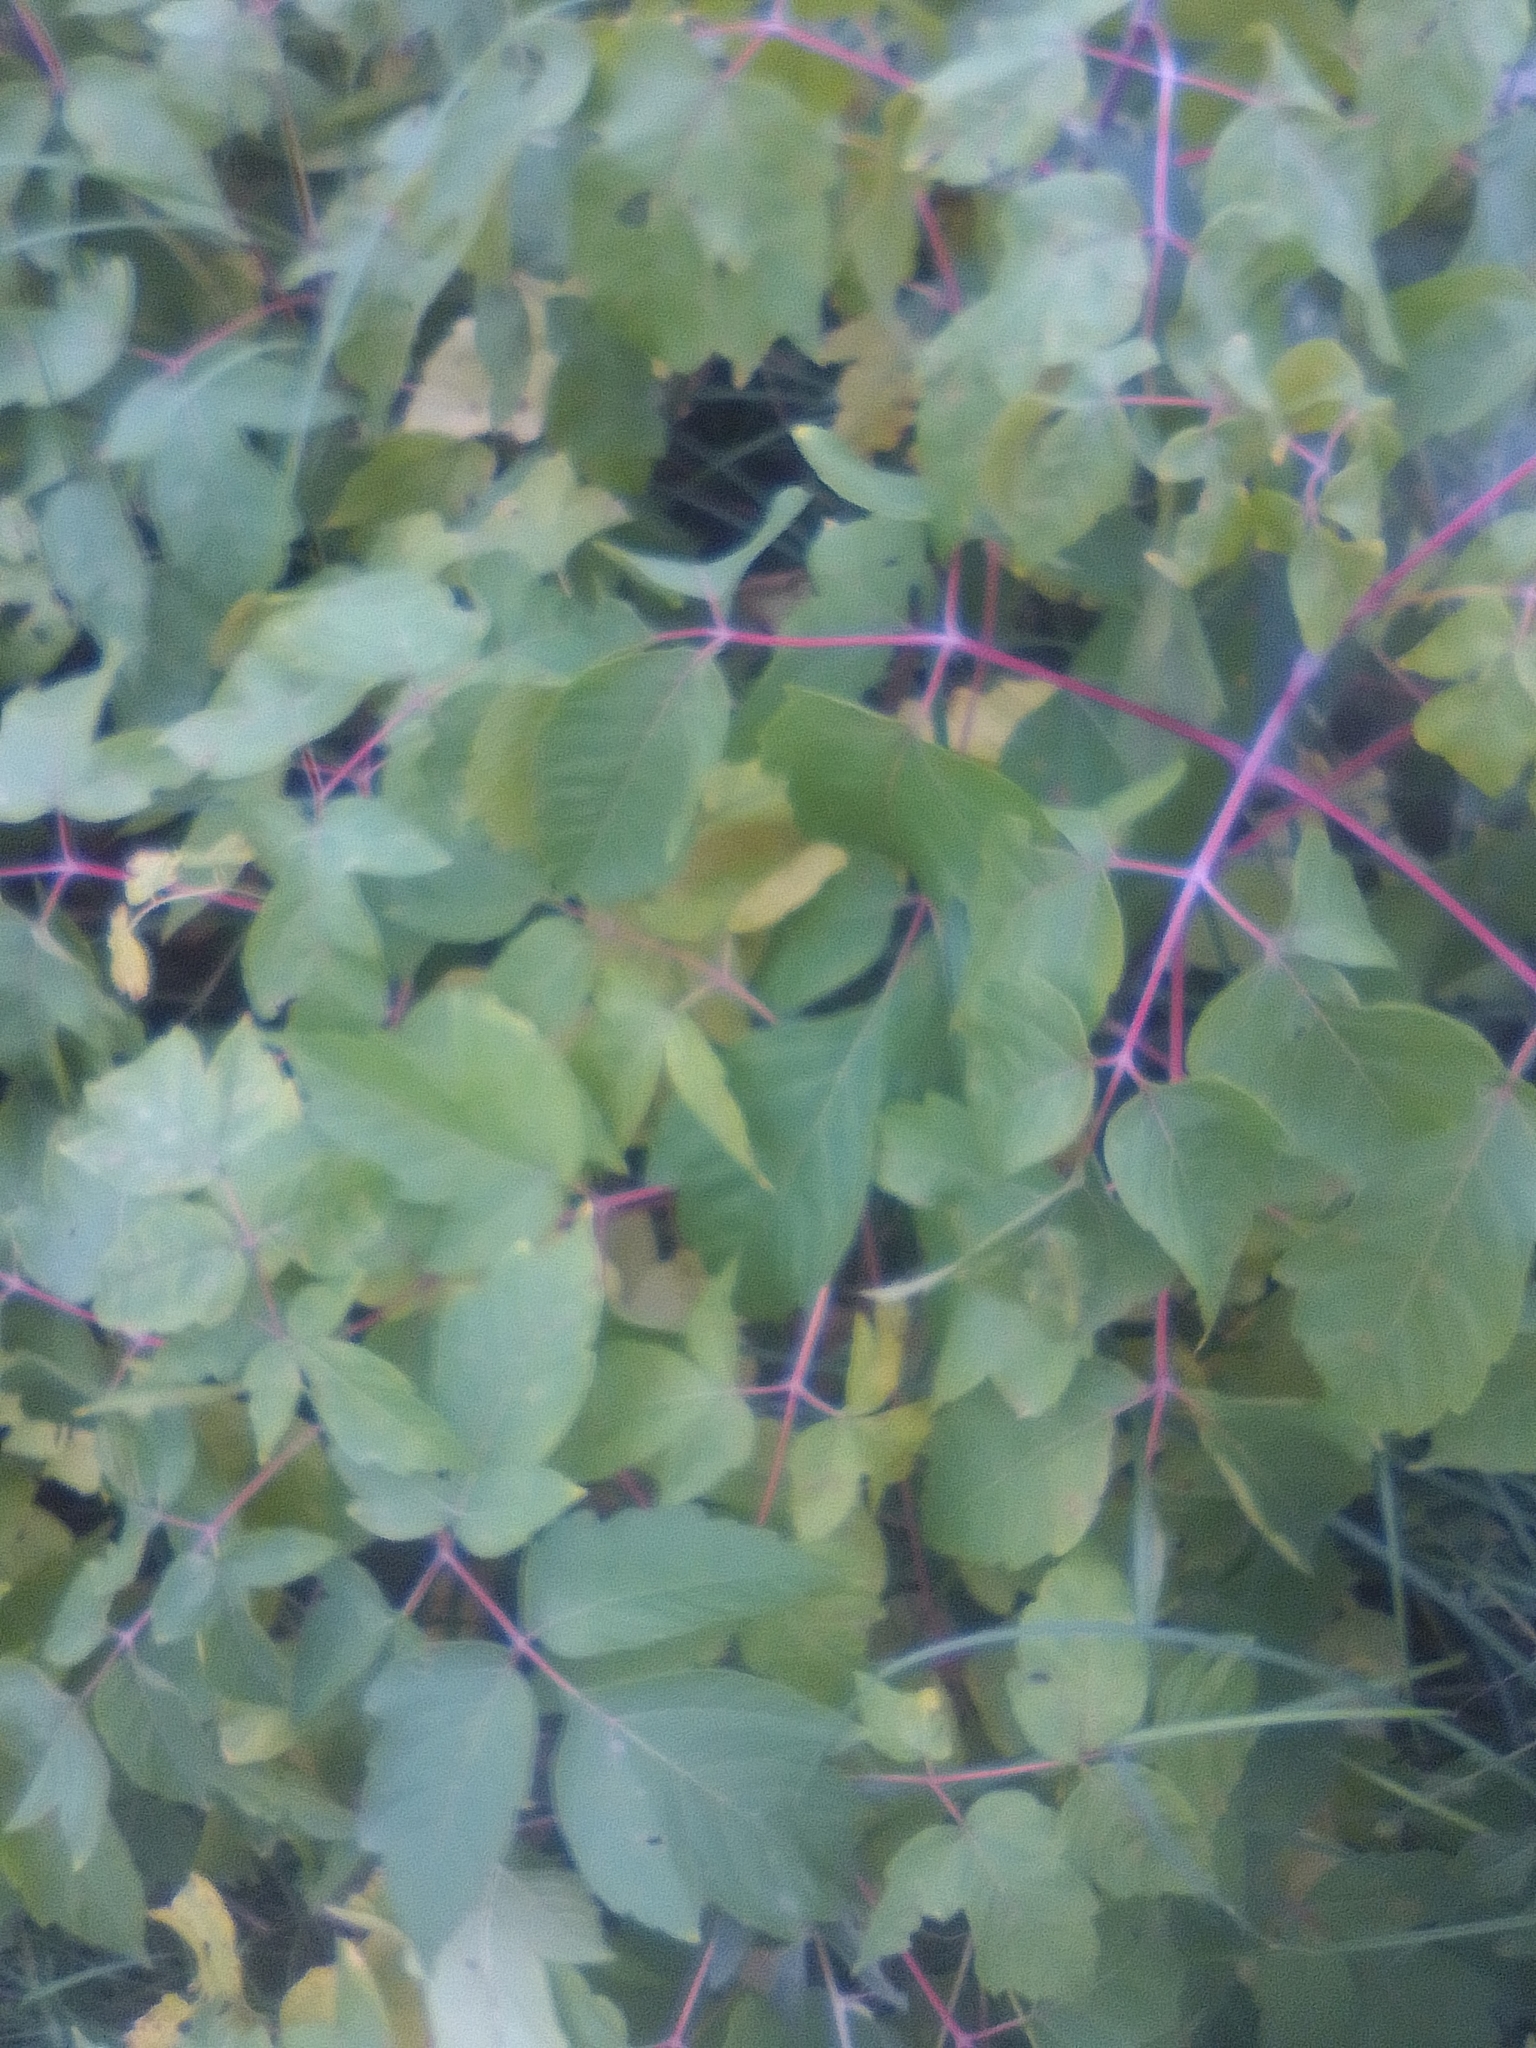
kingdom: Plantae
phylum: Tracheophyta
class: Magnoliopsida
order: Sapindales
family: Sapindaceae
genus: Acer
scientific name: Acer negundo
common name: Ashleaf maple
